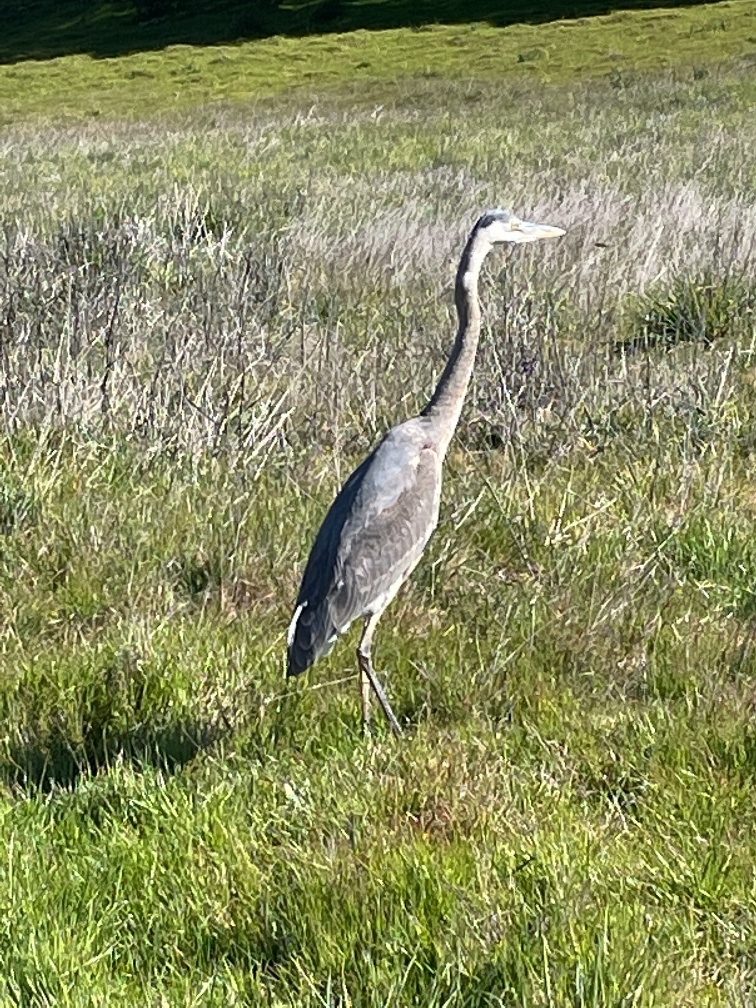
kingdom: Animalia
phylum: Chordata
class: Aves
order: Pelecaniformes
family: Ardeidae
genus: Ardea
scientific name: Ardea herodias
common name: Great blue heron
